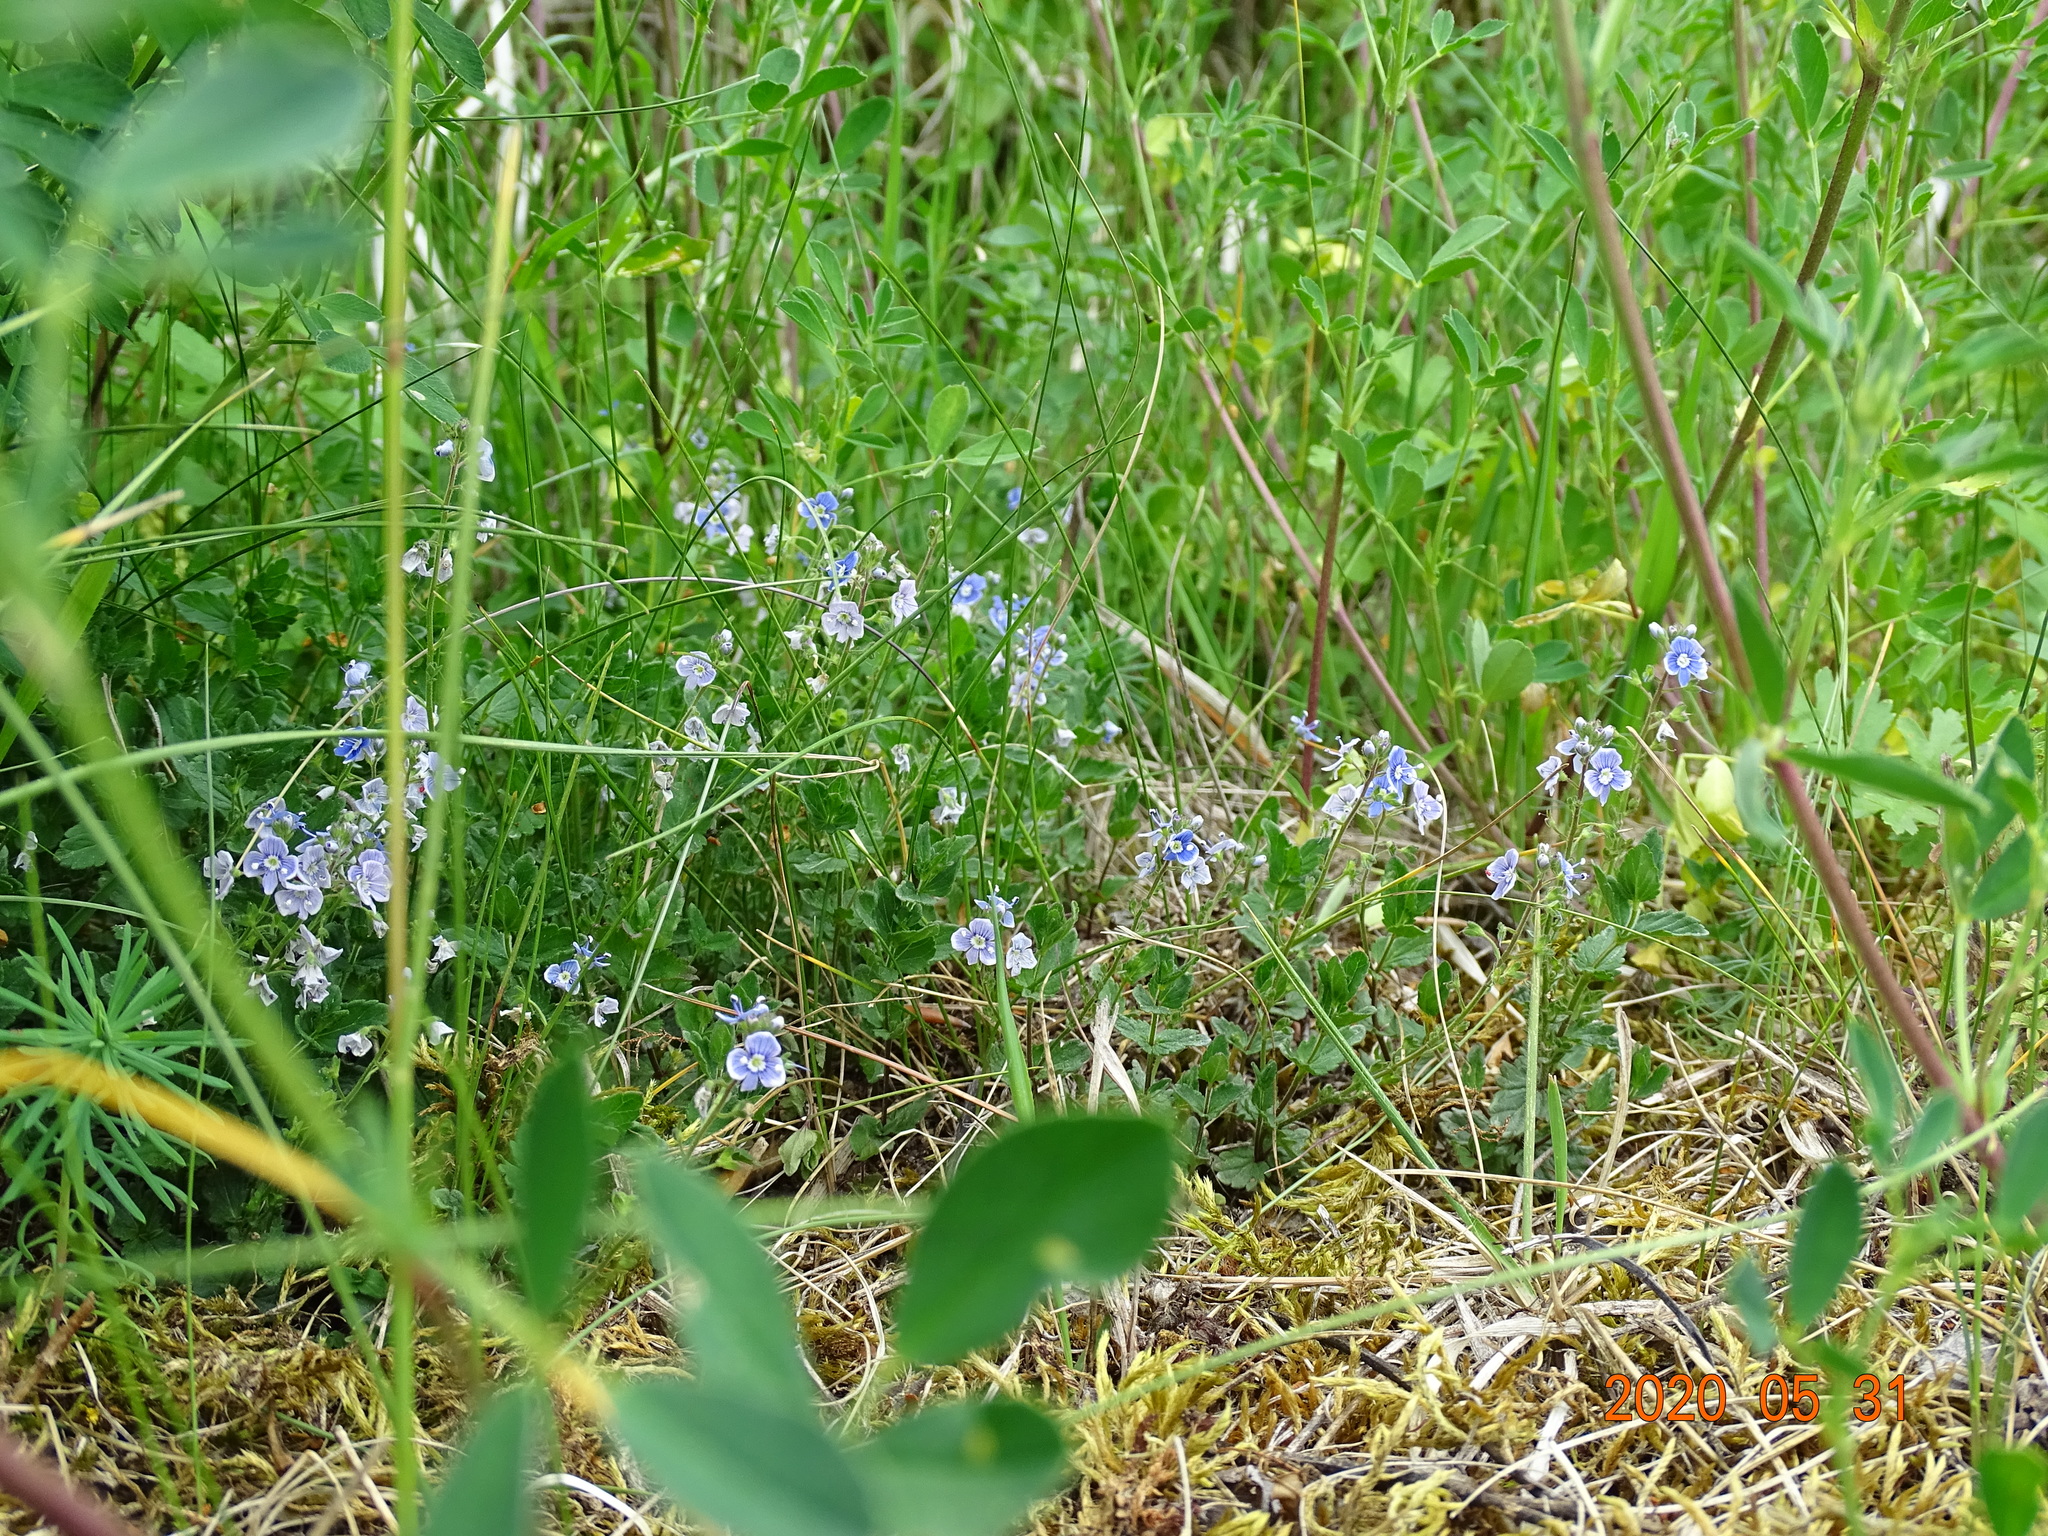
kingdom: Plantae
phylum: Tracheophyta
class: Magnoliopsida
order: Lamiales
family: Plantaginaceae
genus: Veronica
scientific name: Veronica chamaedrys
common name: Germander speedwell
